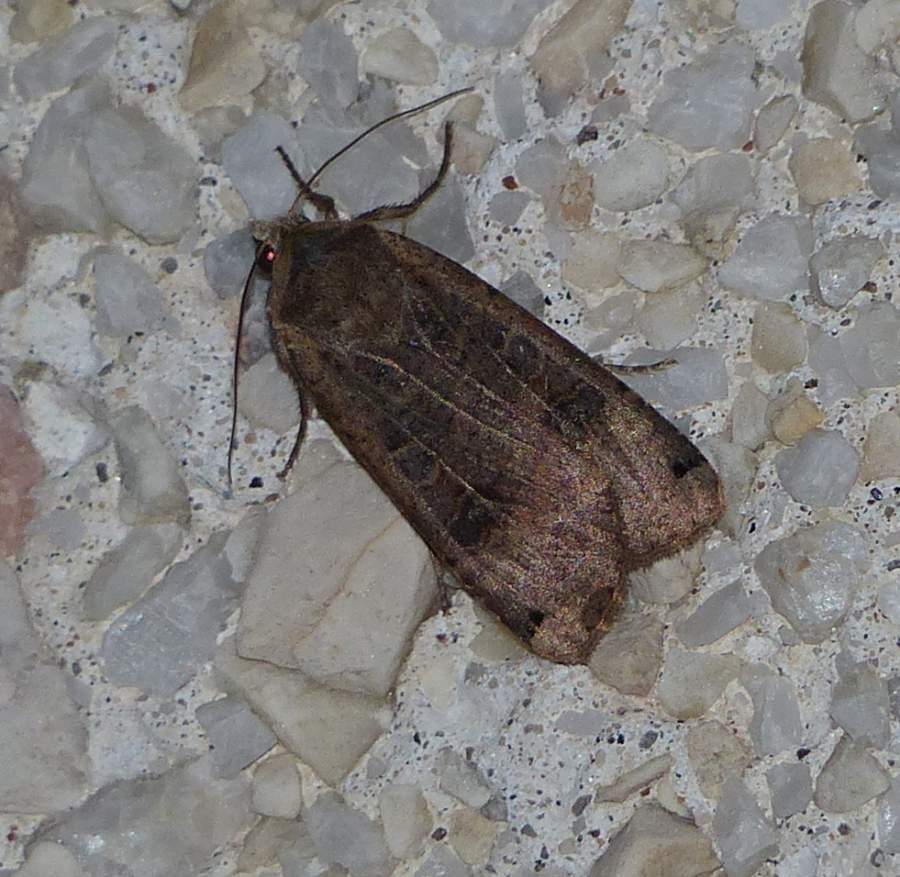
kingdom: Animalia
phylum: Arthropoda
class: Insecta
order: Lepidoptera
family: Noctuidae
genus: Noctua
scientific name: Noctua pronuba
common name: Large yellow underwing
